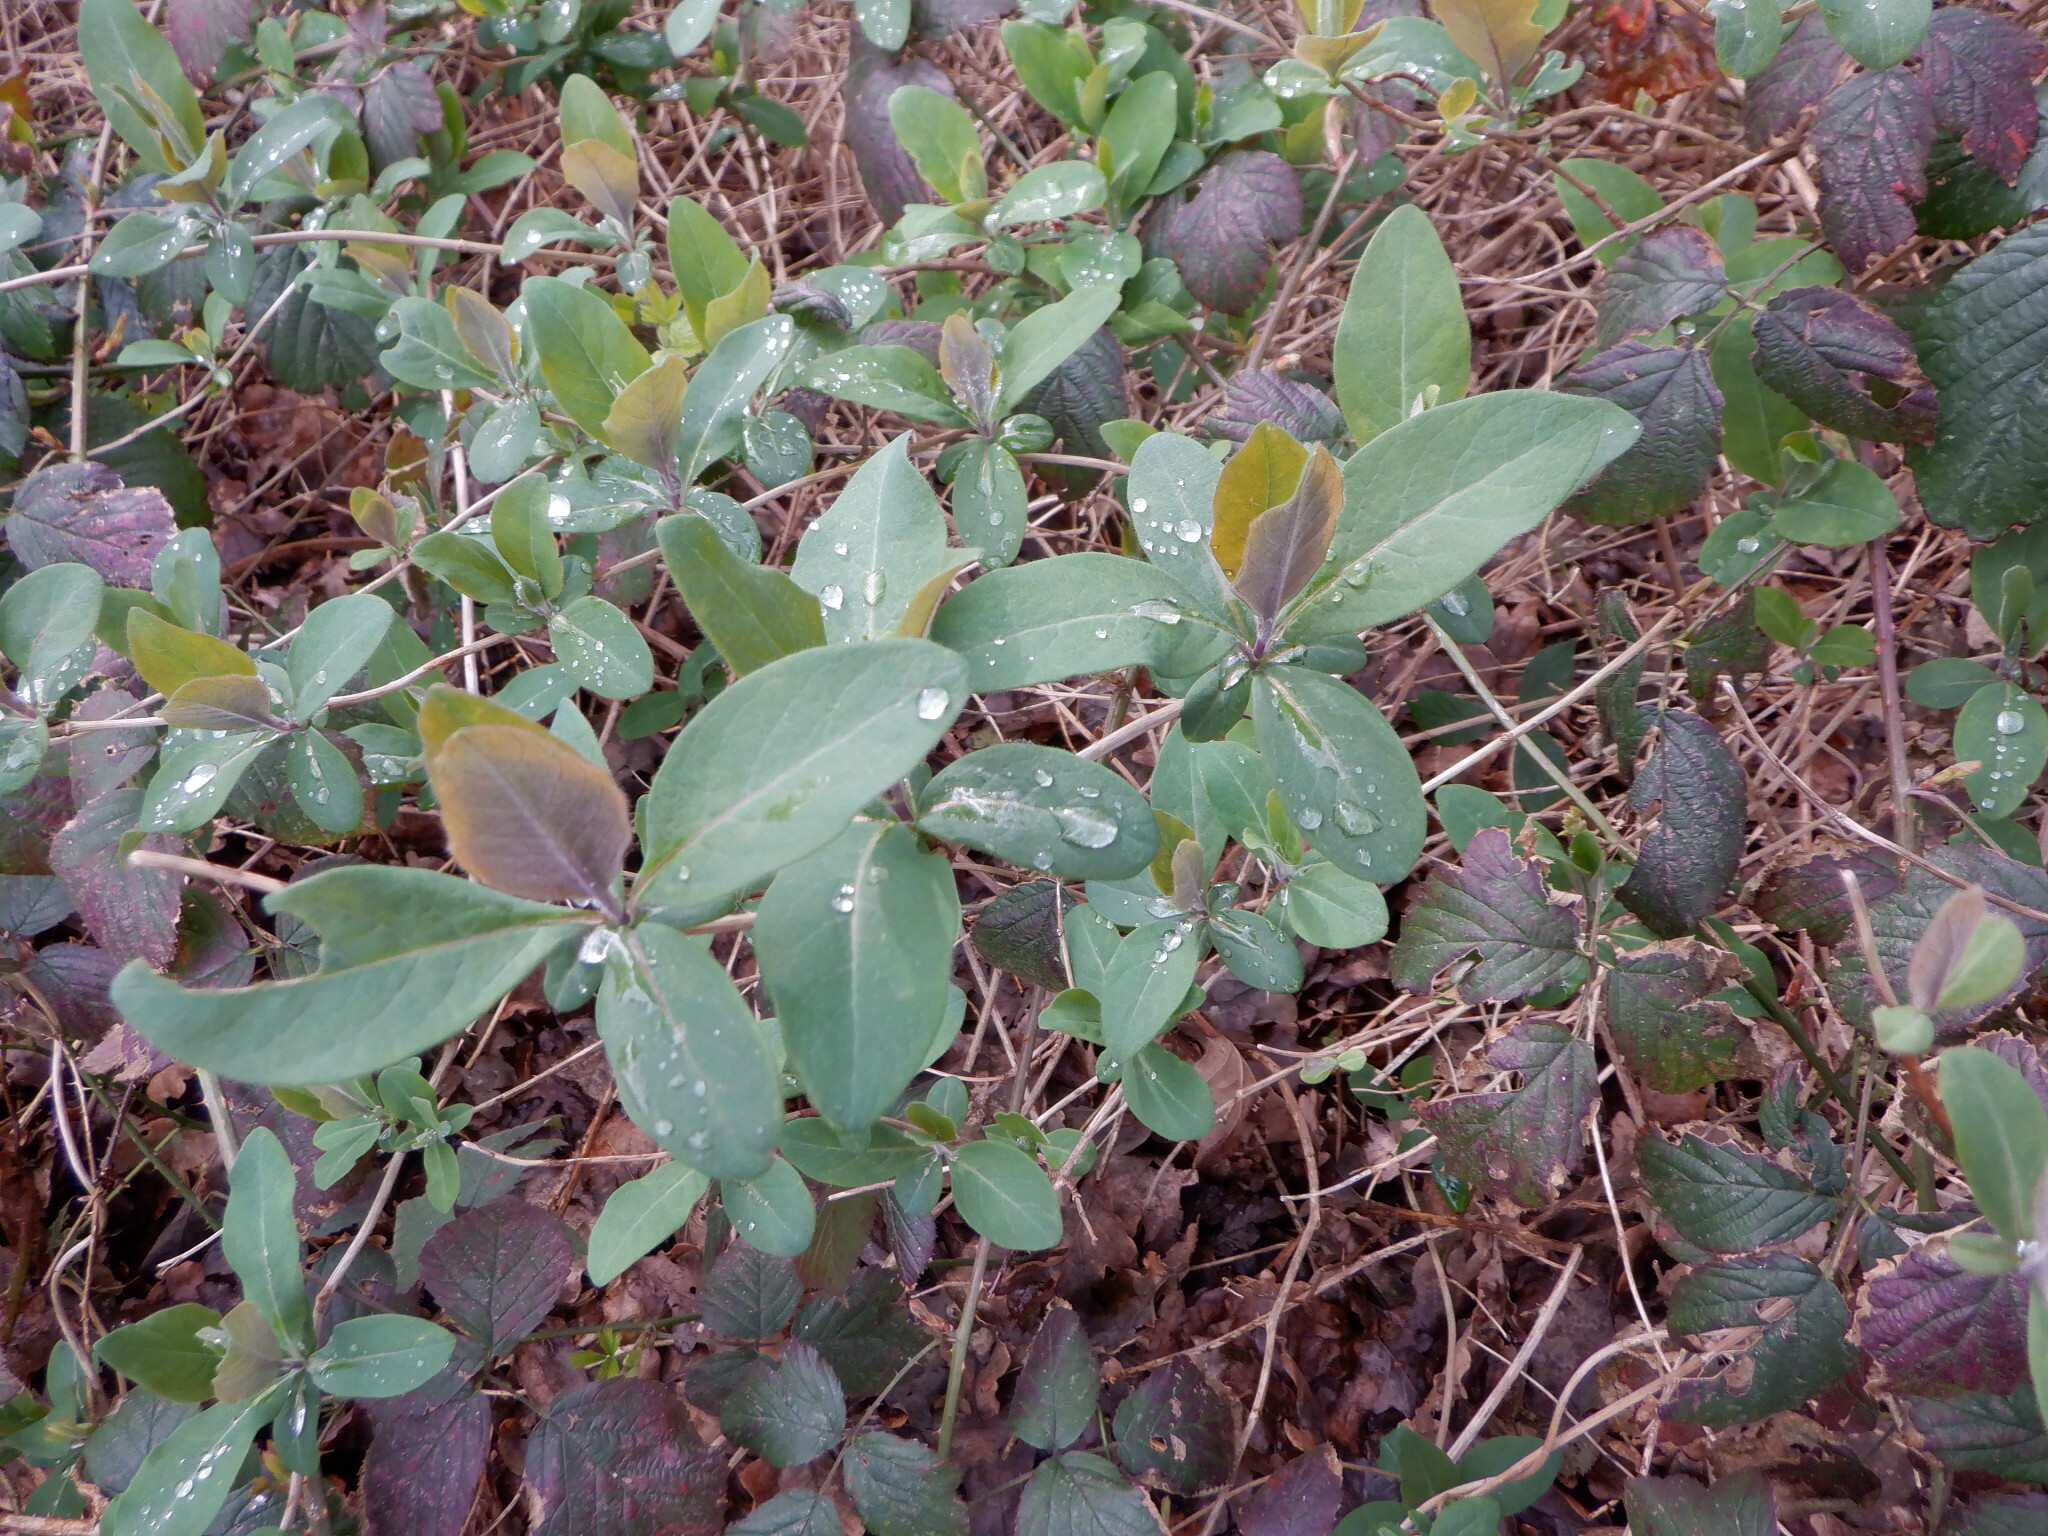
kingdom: Plantae
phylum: Tracheophyta
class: Magnoliopsida
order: Dipsacales
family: Caprifoliaceae
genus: Lonicera
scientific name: Lonicera periclymenum
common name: European honeysuckle
